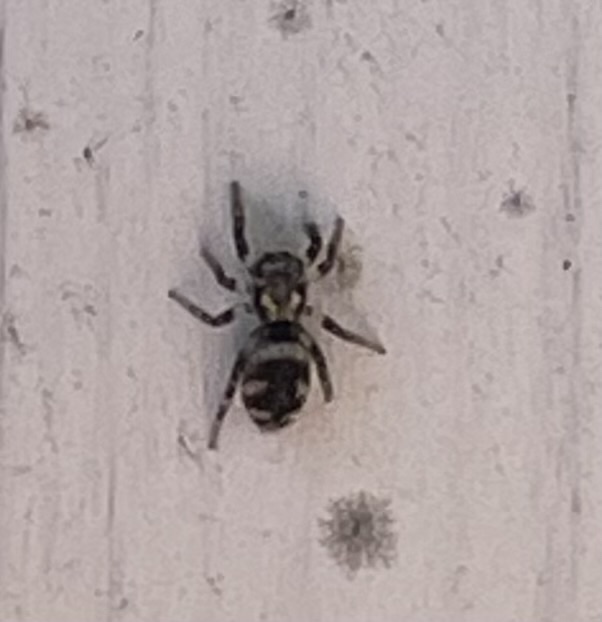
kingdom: Animalia
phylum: Arthropoda
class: Arachnida
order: Araneae
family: Salticidae
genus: Salticus
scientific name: Salticus scenicus
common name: Zebra jumper
